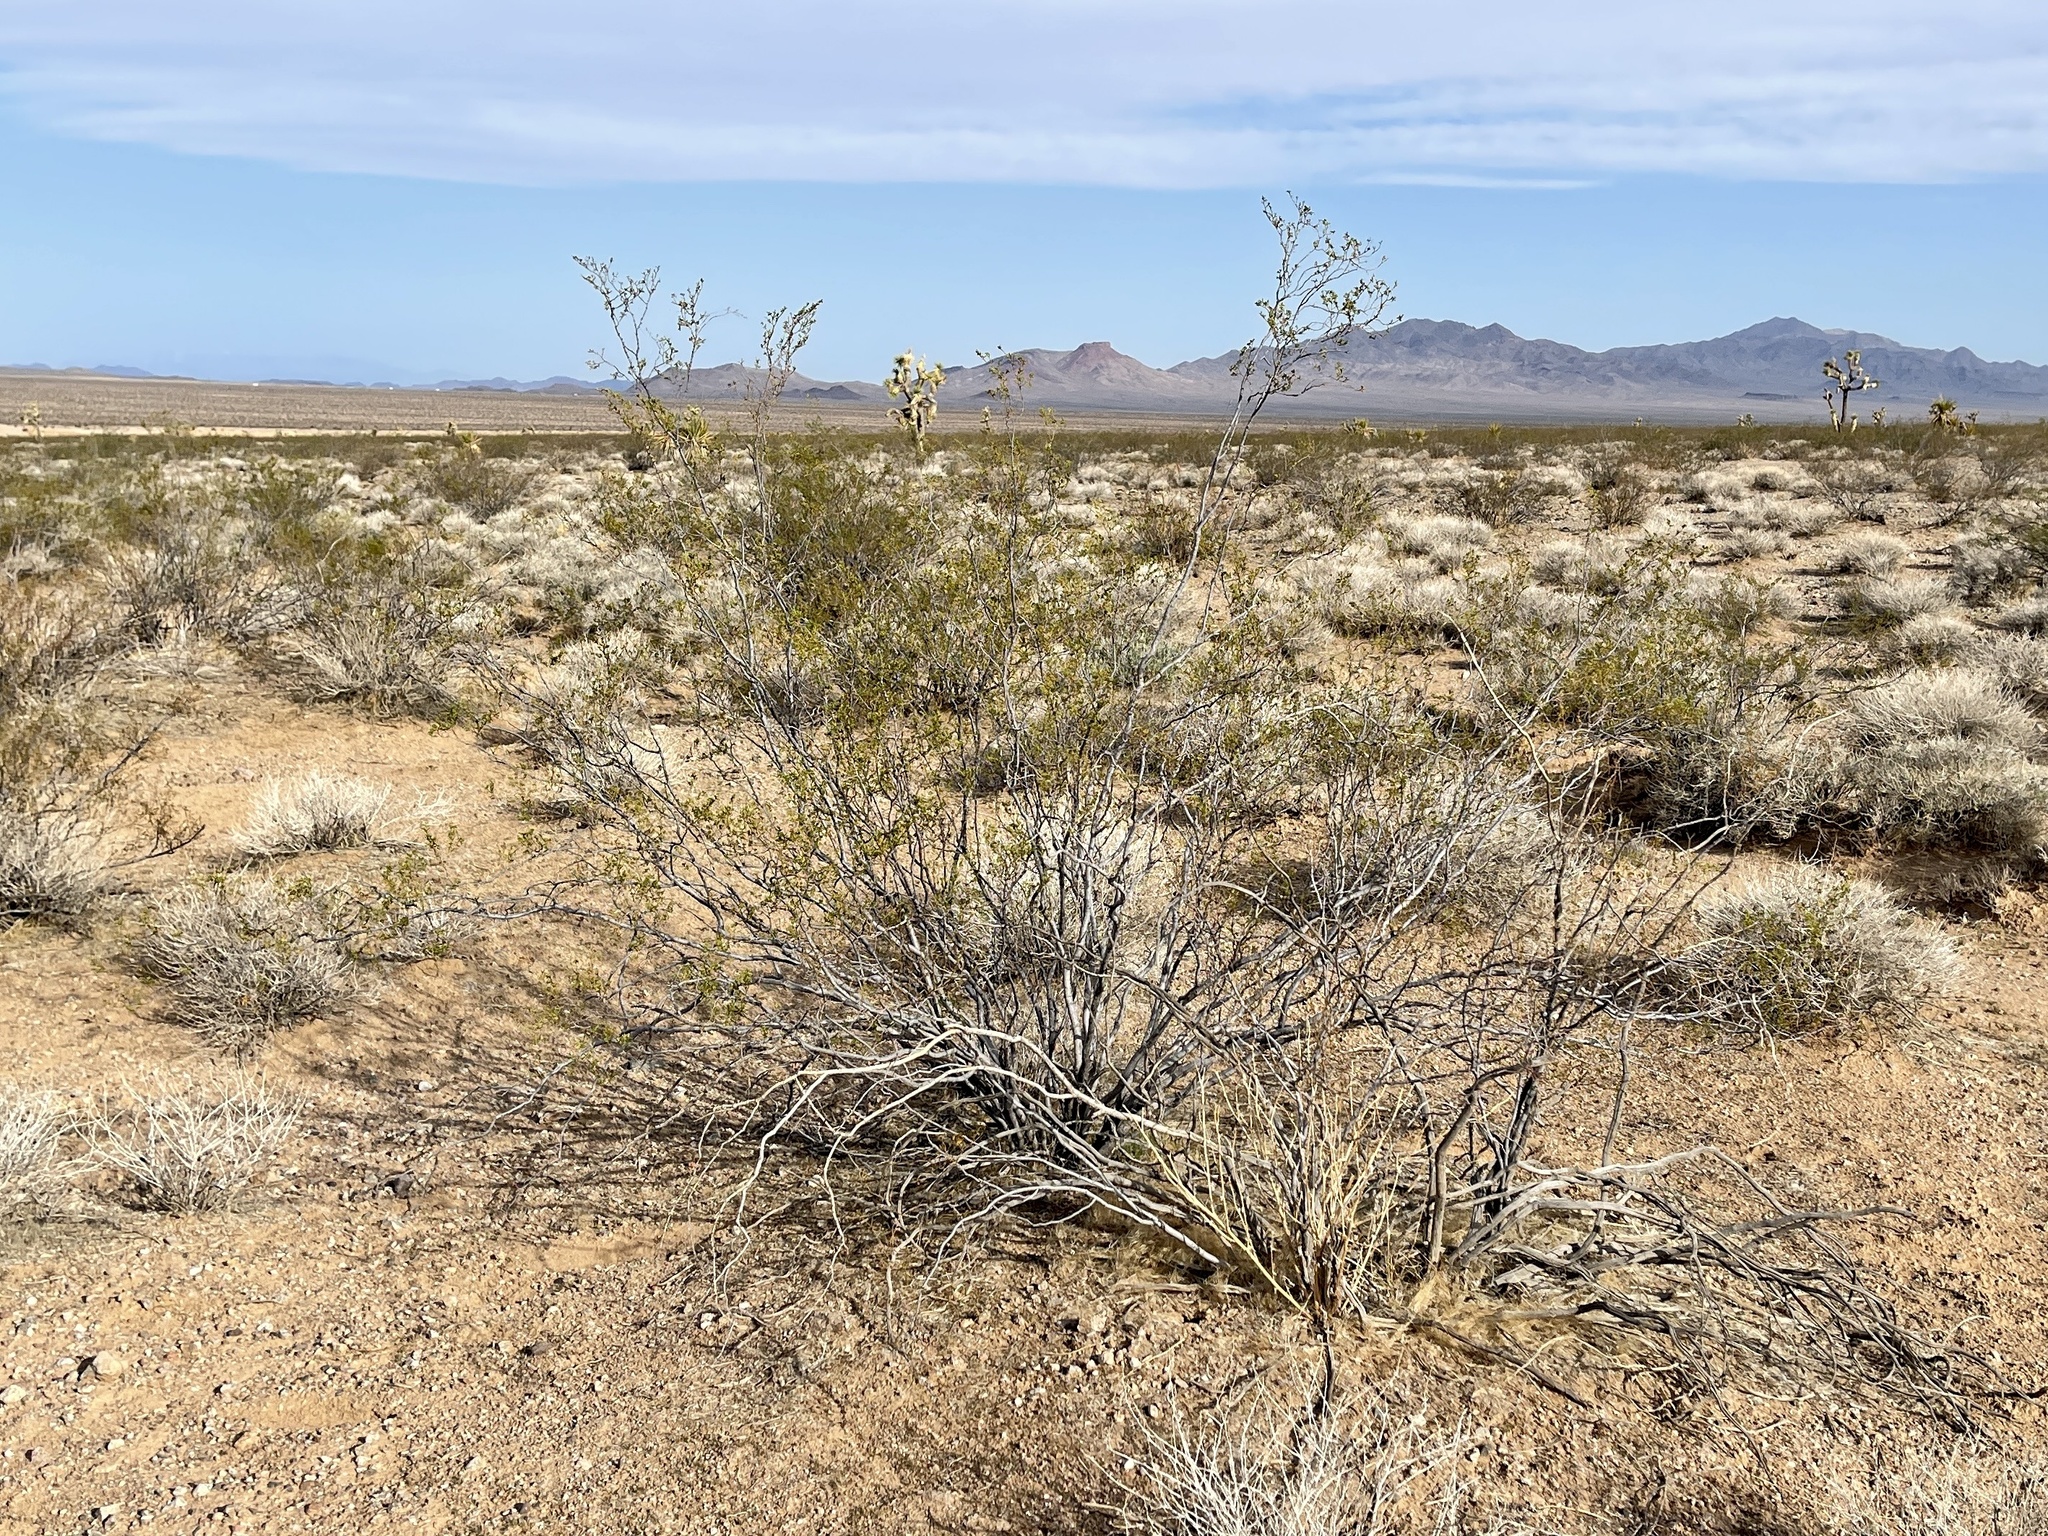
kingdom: Plantae
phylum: Tracheophyta
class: Magnoliopsida
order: Zygophyllales
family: Zygophyllaceae
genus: Larrea
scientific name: Larrea tridentata
